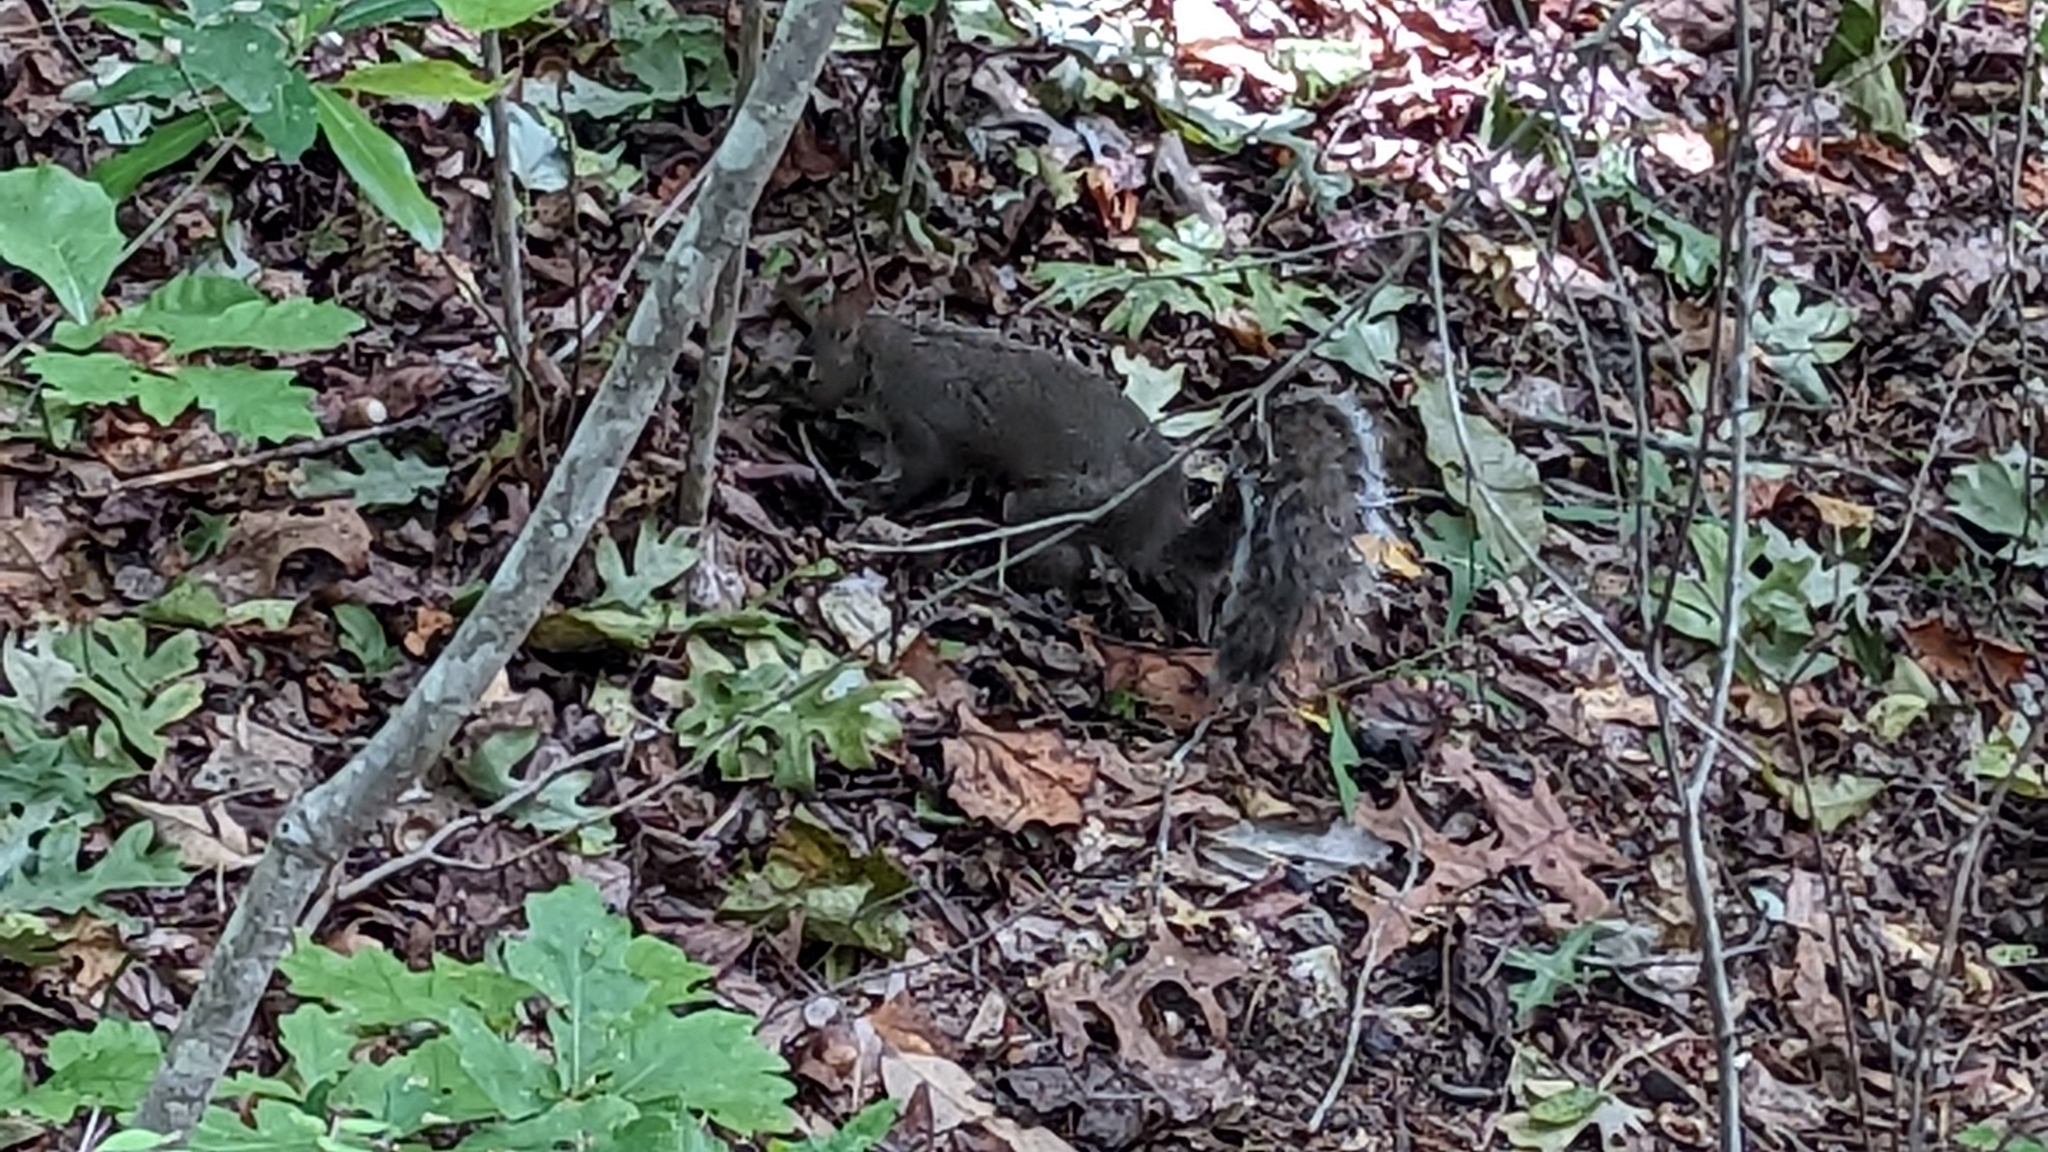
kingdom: Animalia
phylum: Chordata
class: Mammalia
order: Rodentia
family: Sciuridae
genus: Sciurus
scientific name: Sciurus carolinensis
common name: Eastern gray squirrel
